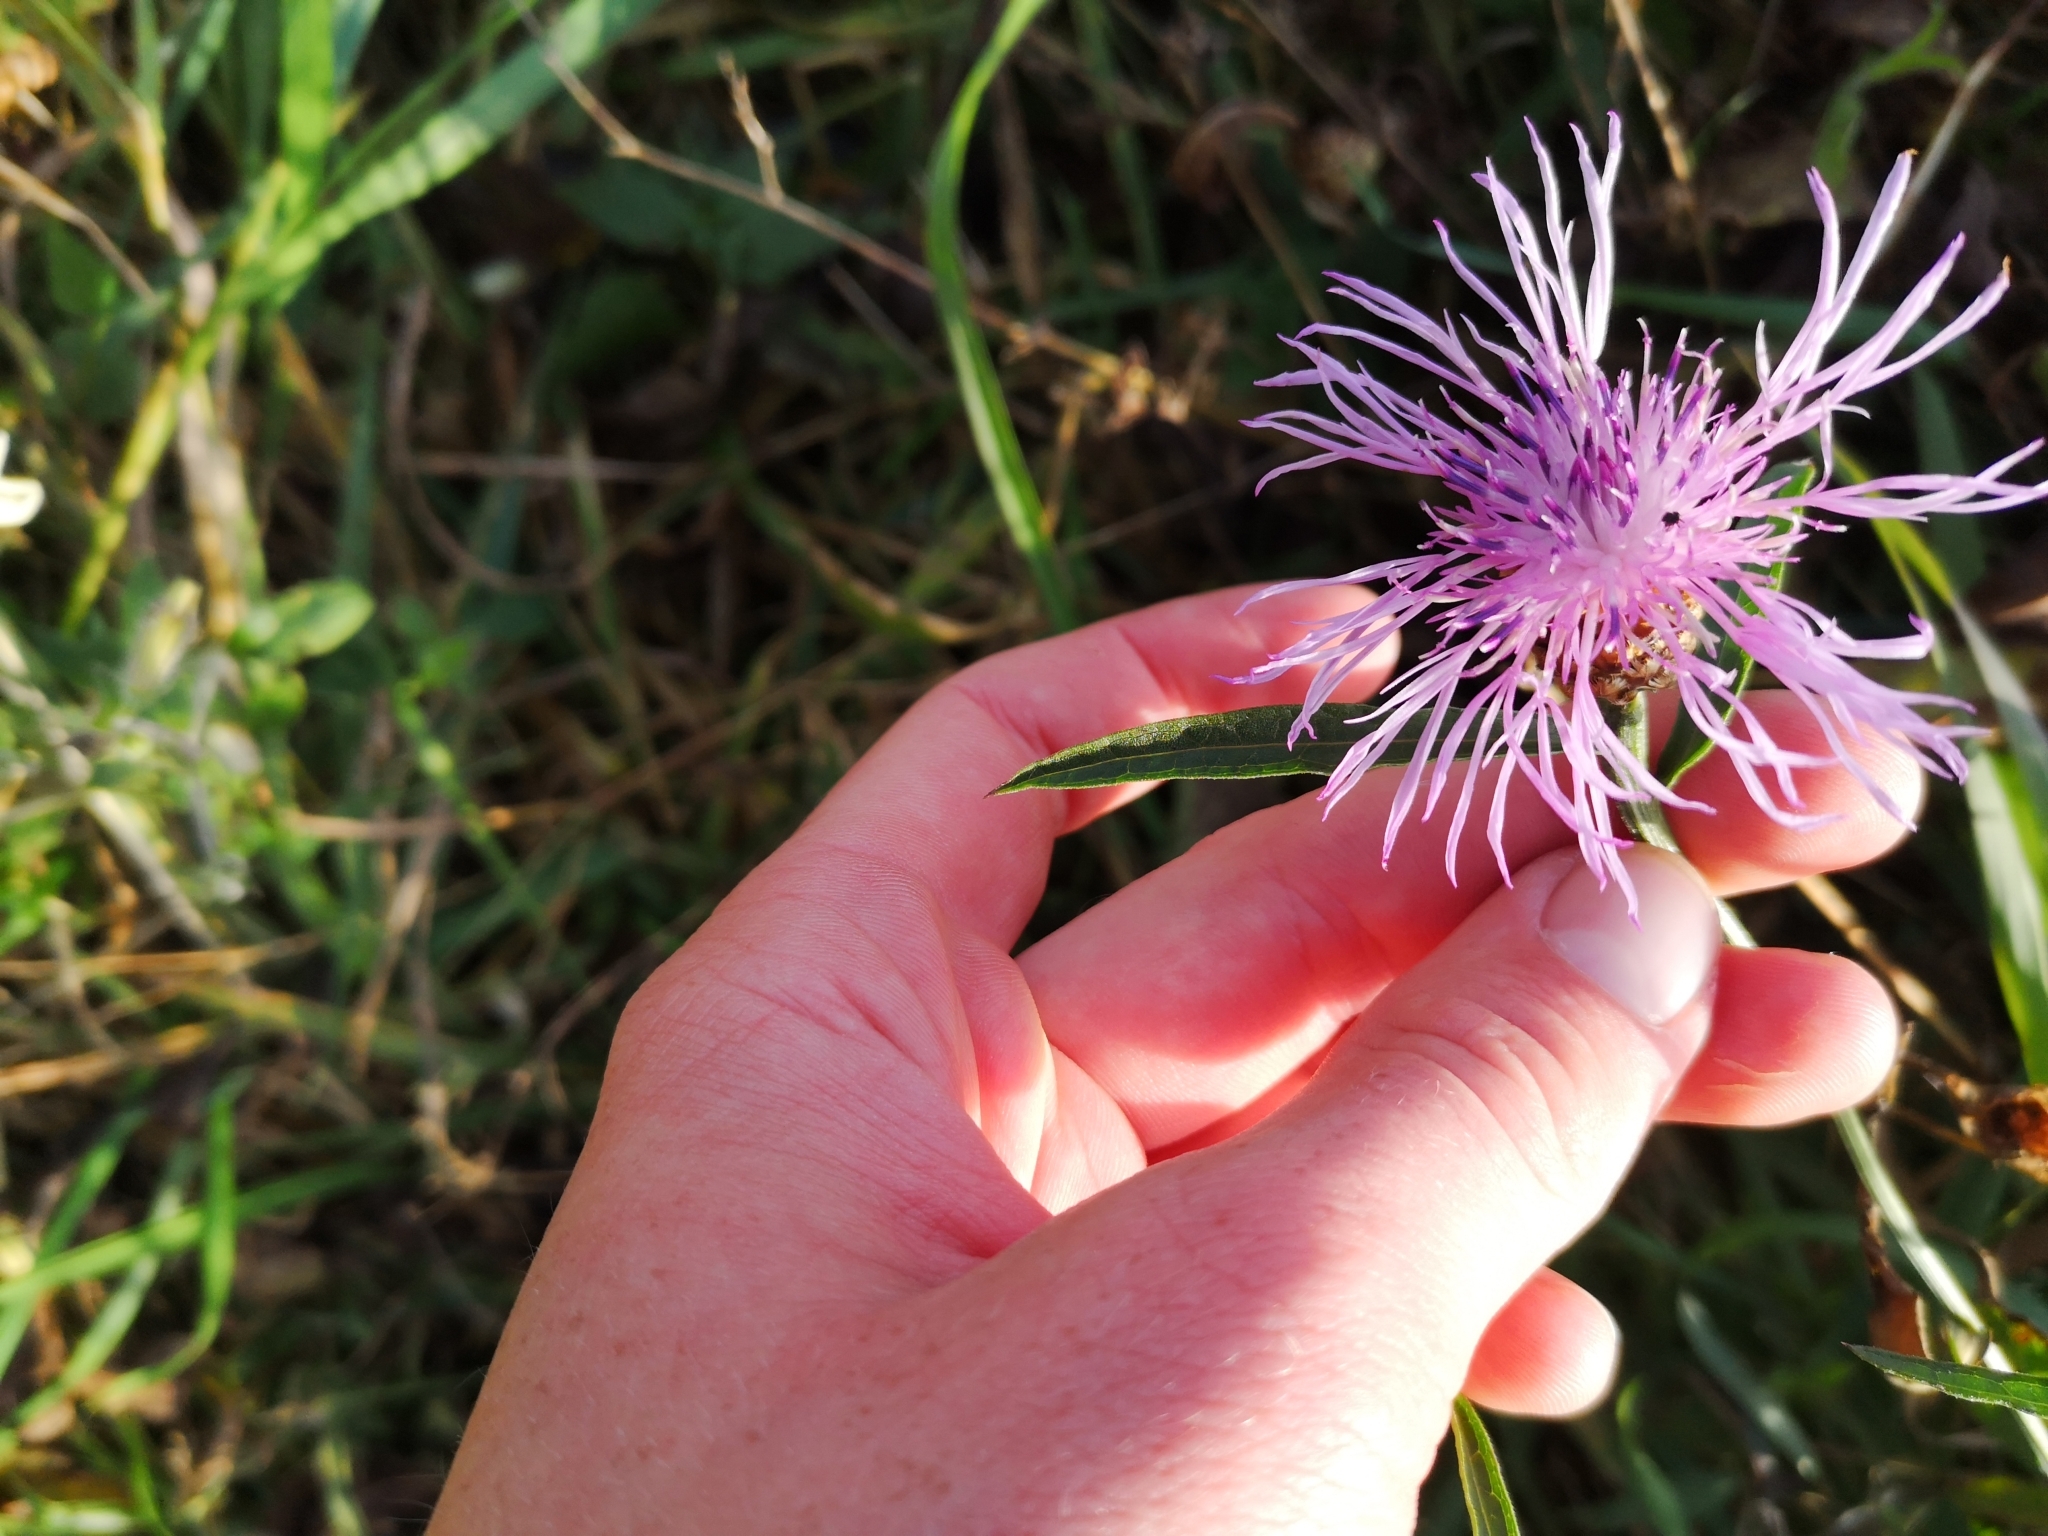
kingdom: Plantae
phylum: Tracheophyta
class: Magnoliopsida
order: Asterales
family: Asteraceae
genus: Centaurea
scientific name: Centaurea jacea
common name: Brown knapweed
